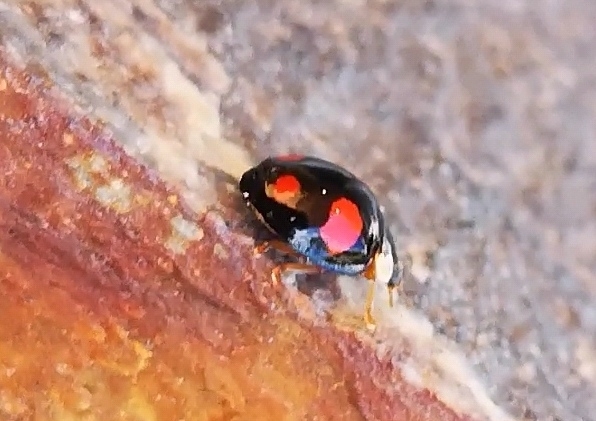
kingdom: Animalia
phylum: Arthropoda
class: Insecta
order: Coleoptera
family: Coccinellidae
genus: Harmonia
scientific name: Harmonia axyridis
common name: Harlequin ladybird
